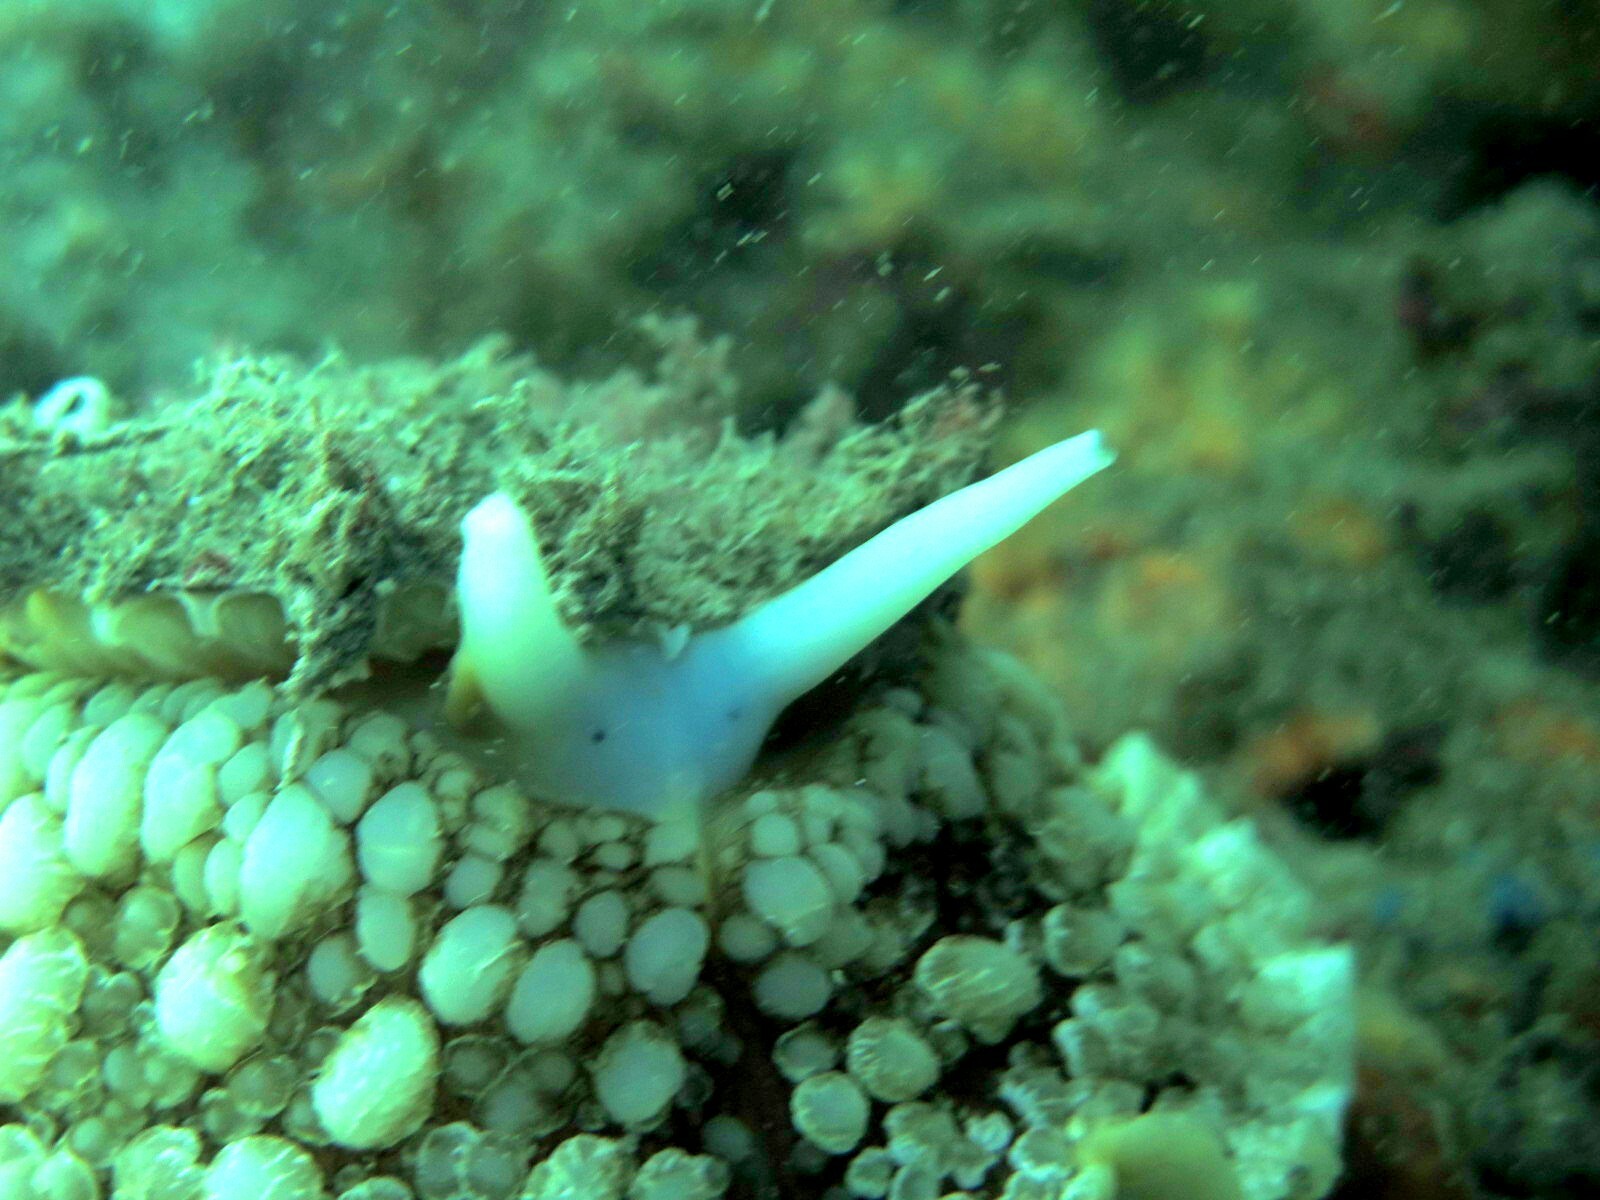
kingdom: Animalia
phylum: Mollusca
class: Gastropoda
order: Umbraculida
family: Umbraculidae
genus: Umbraculum
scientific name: Umbraculum umbraculum
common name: Atlantic umbrella slug
